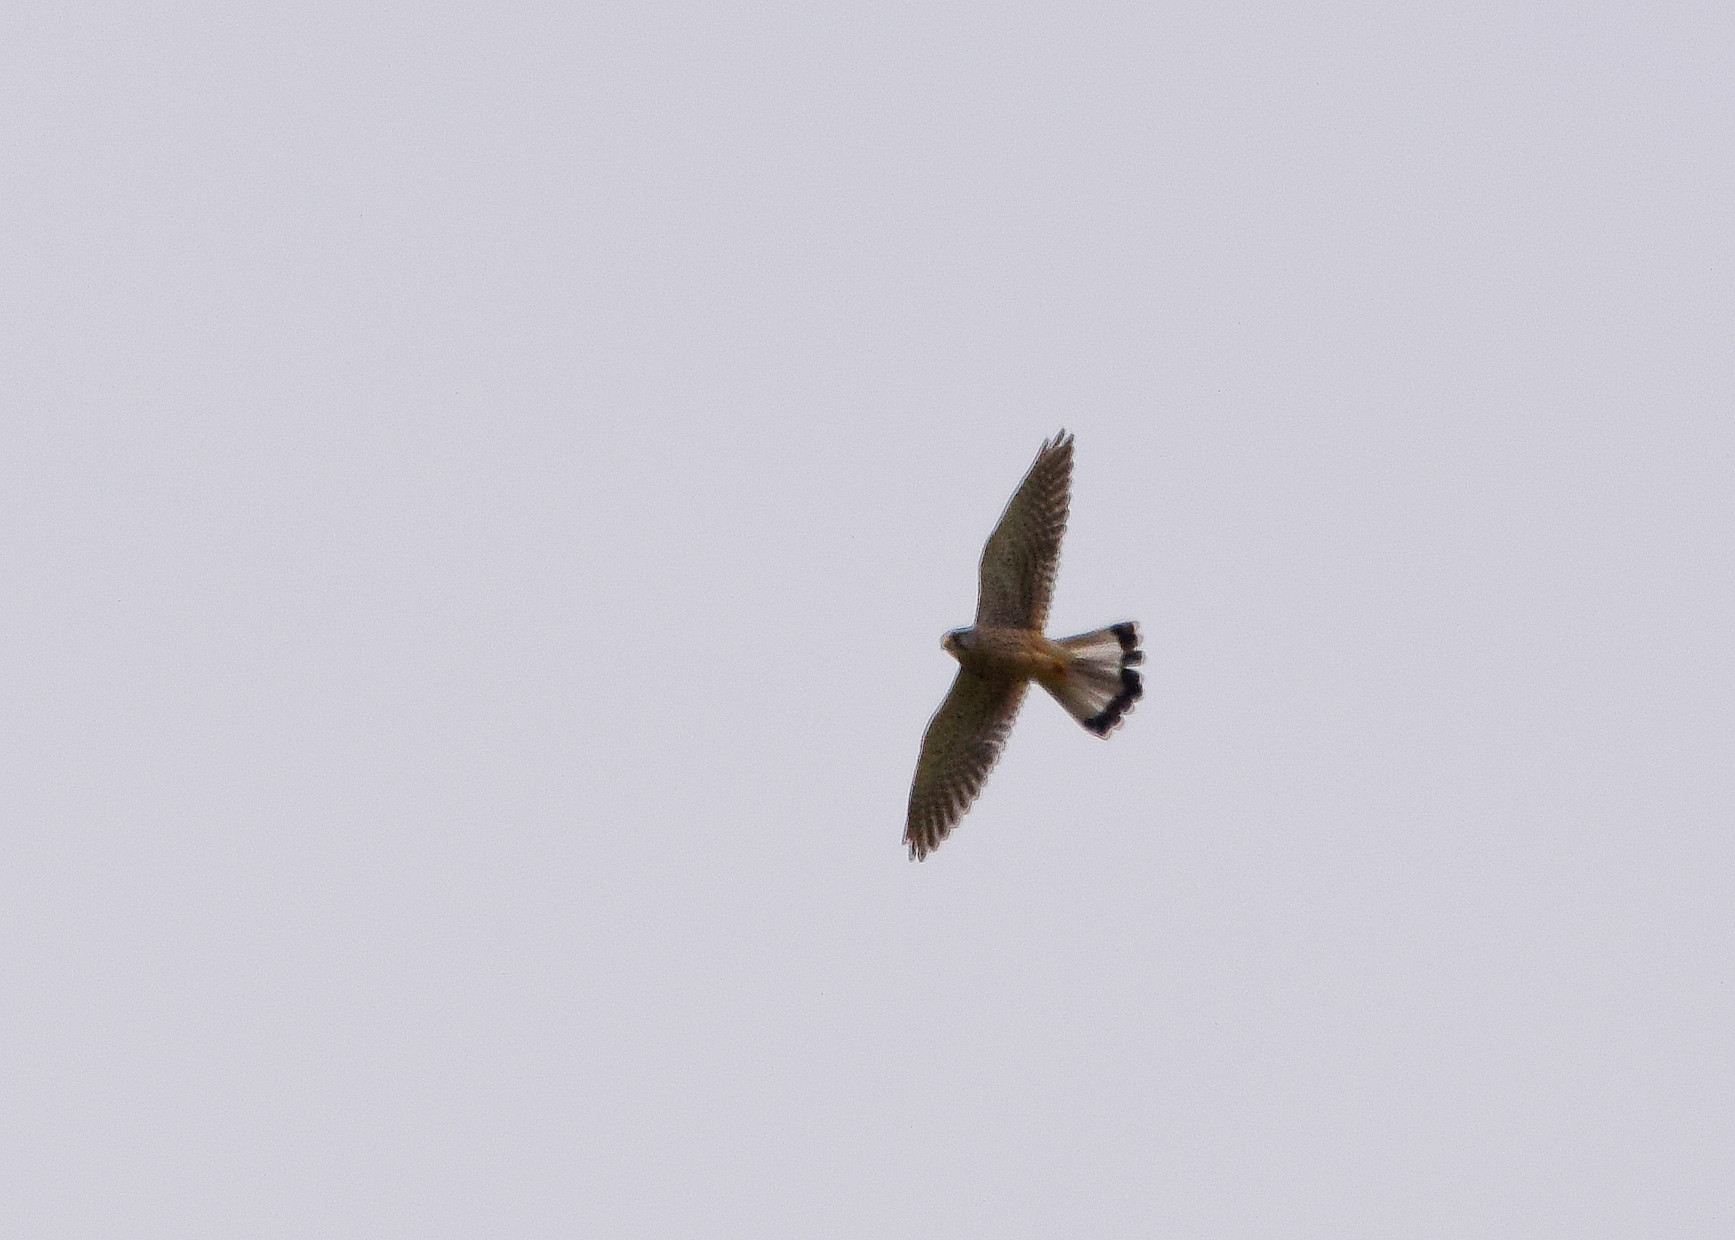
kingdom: Animalia
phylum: Chordata
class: Aves
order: Falconiformes
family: Falconidae
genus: Falco
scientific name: Falco tinnunculus
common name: Common kestrel
